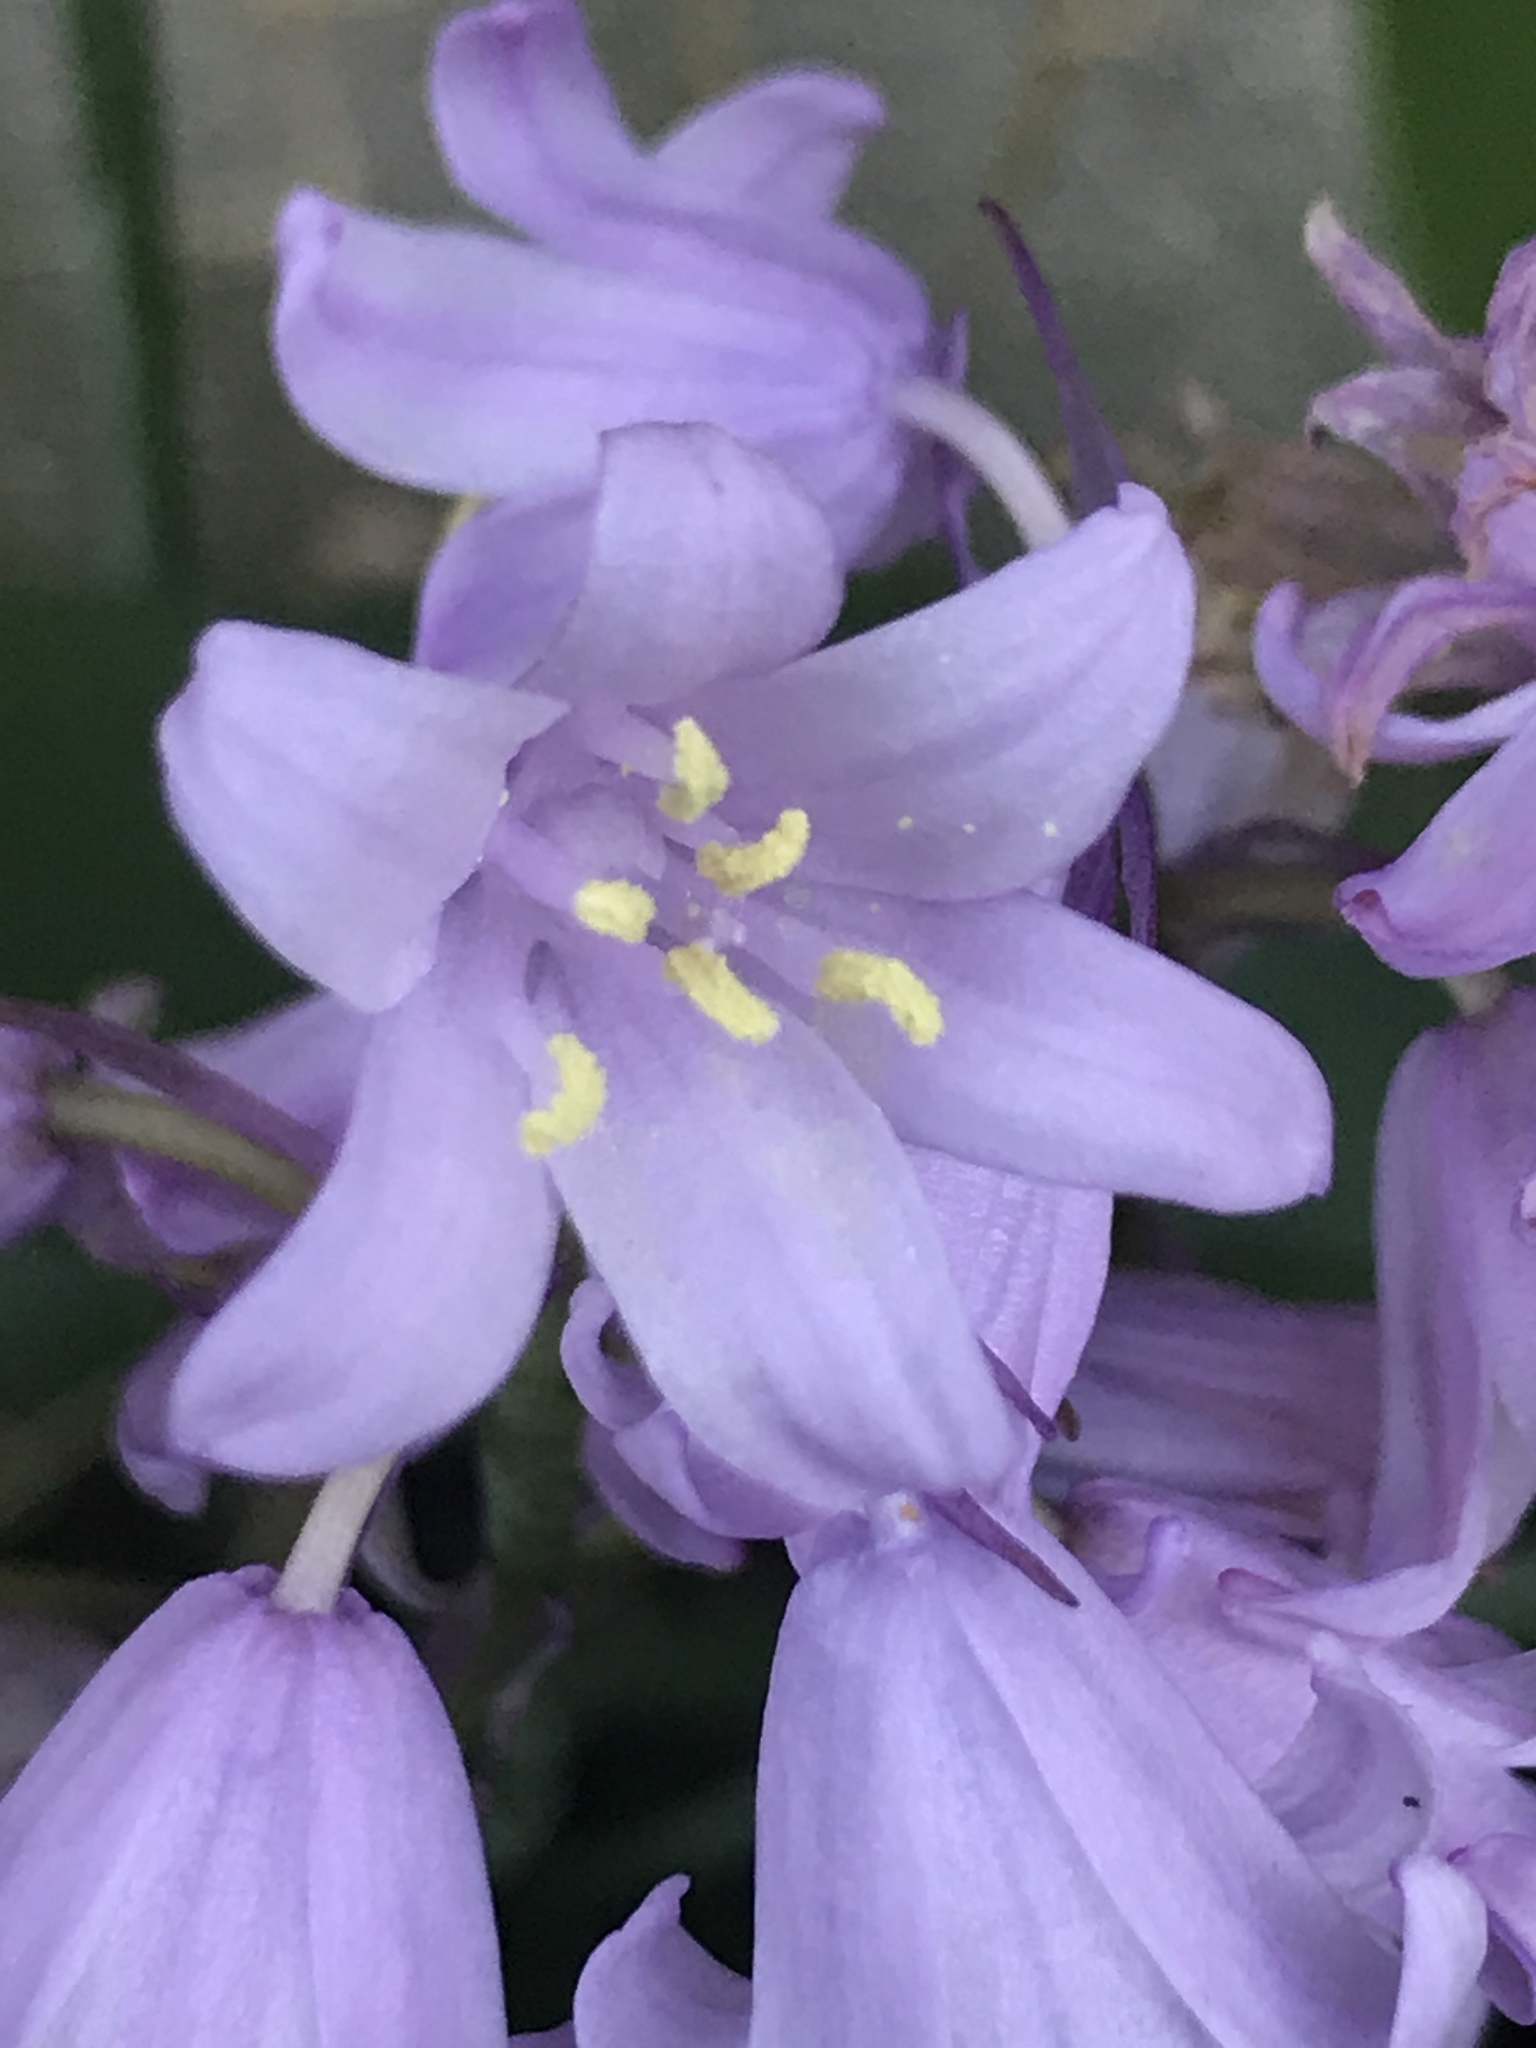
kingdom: Plantae
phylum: Tracheophyta
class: Liliopsida
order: Asparagales
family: Asparagaceae
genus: Hyacinthoides
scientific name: Hyacinthoides hispanica
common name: Spanish bluebell
